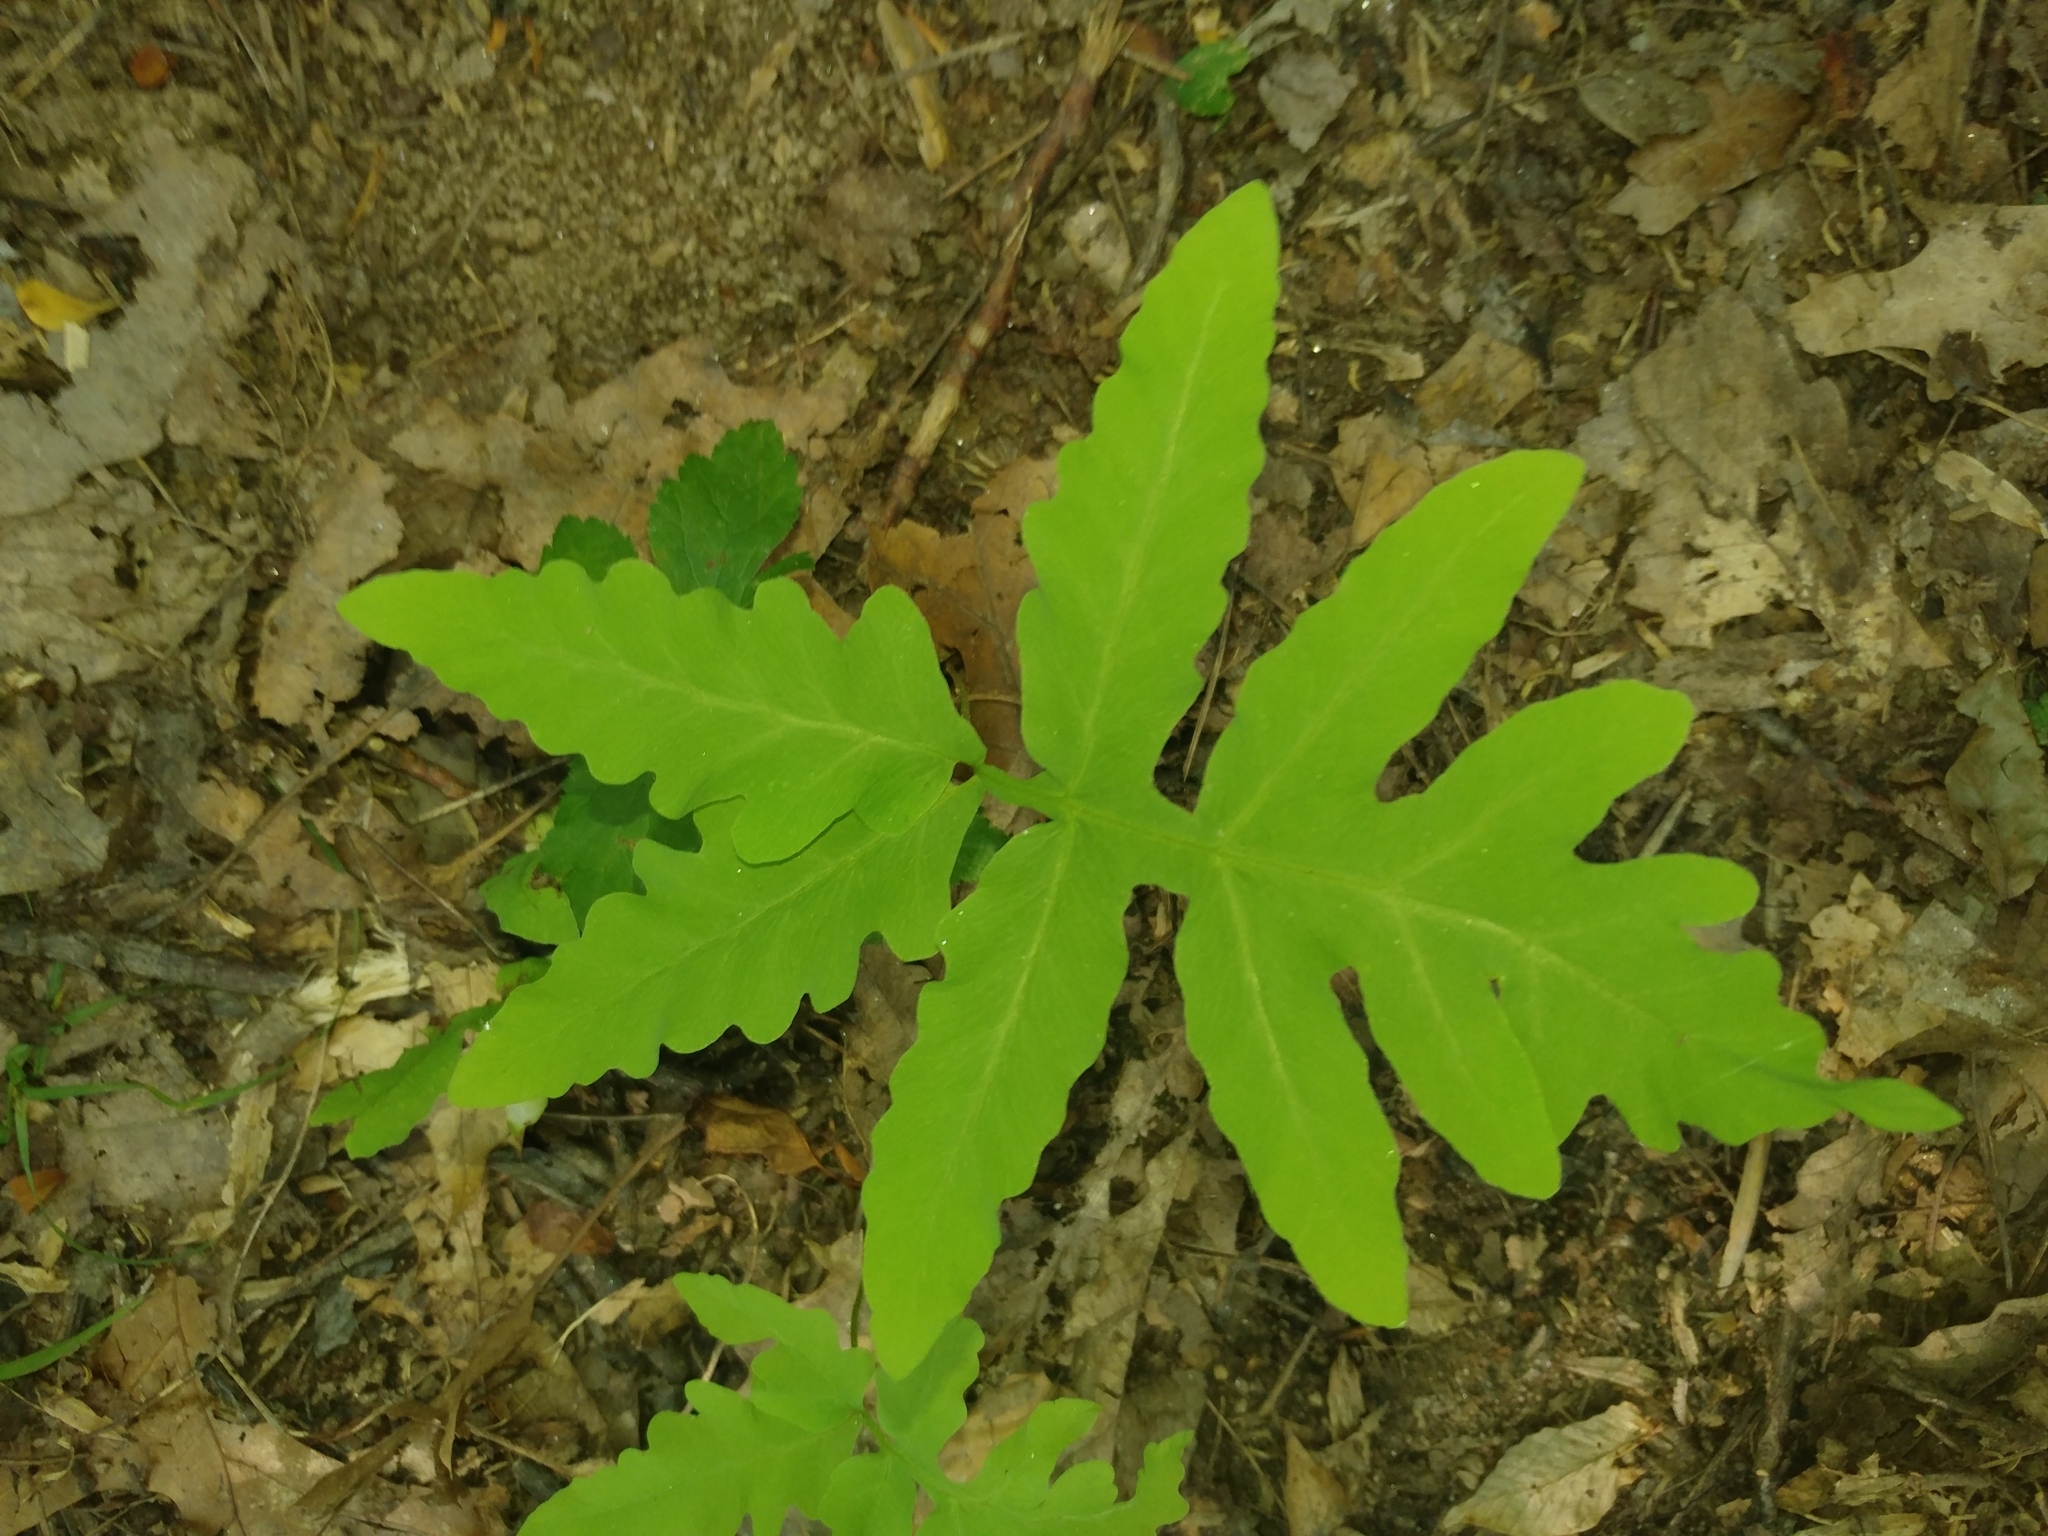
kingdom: Plantae
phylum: Tracheophyta
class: Polypodiopsida
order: Polypodiales
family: Onocleaceae
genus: Onoclea
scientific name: Onoclea sensibilis
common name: Sensitive fern
